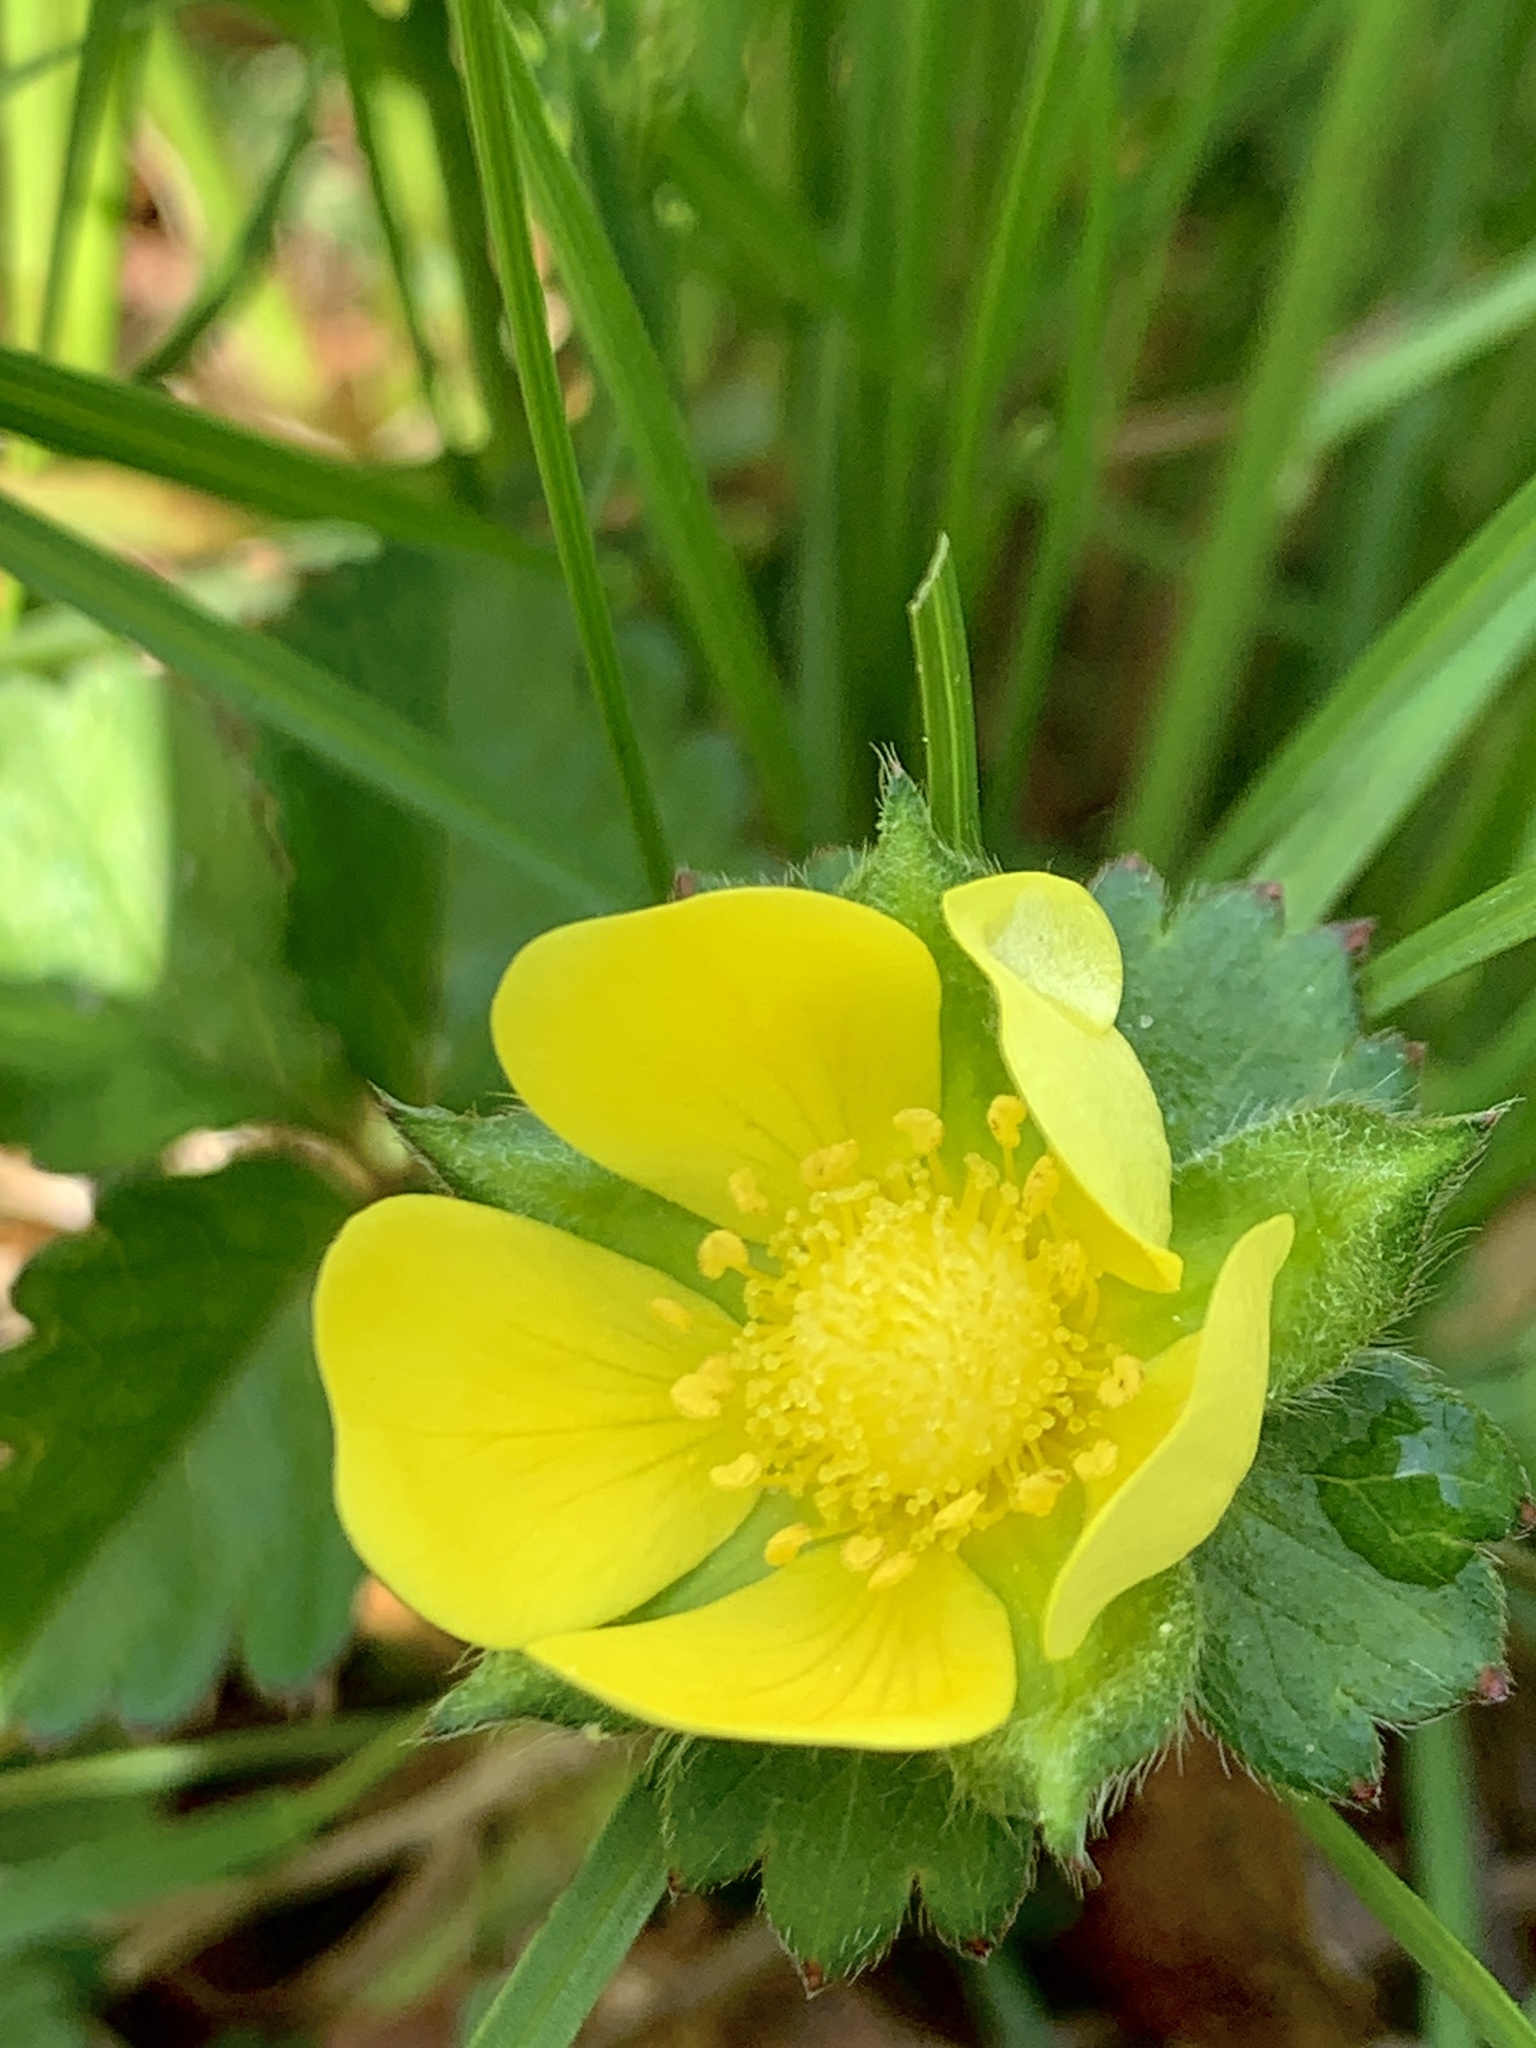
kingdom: Plantae
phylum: Tracheophyta
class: Magnoliopsida
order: Rosales
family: Rosaceae
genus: Potentilla
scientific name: Potentilla indica
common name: Yellow-flowered strawberry
